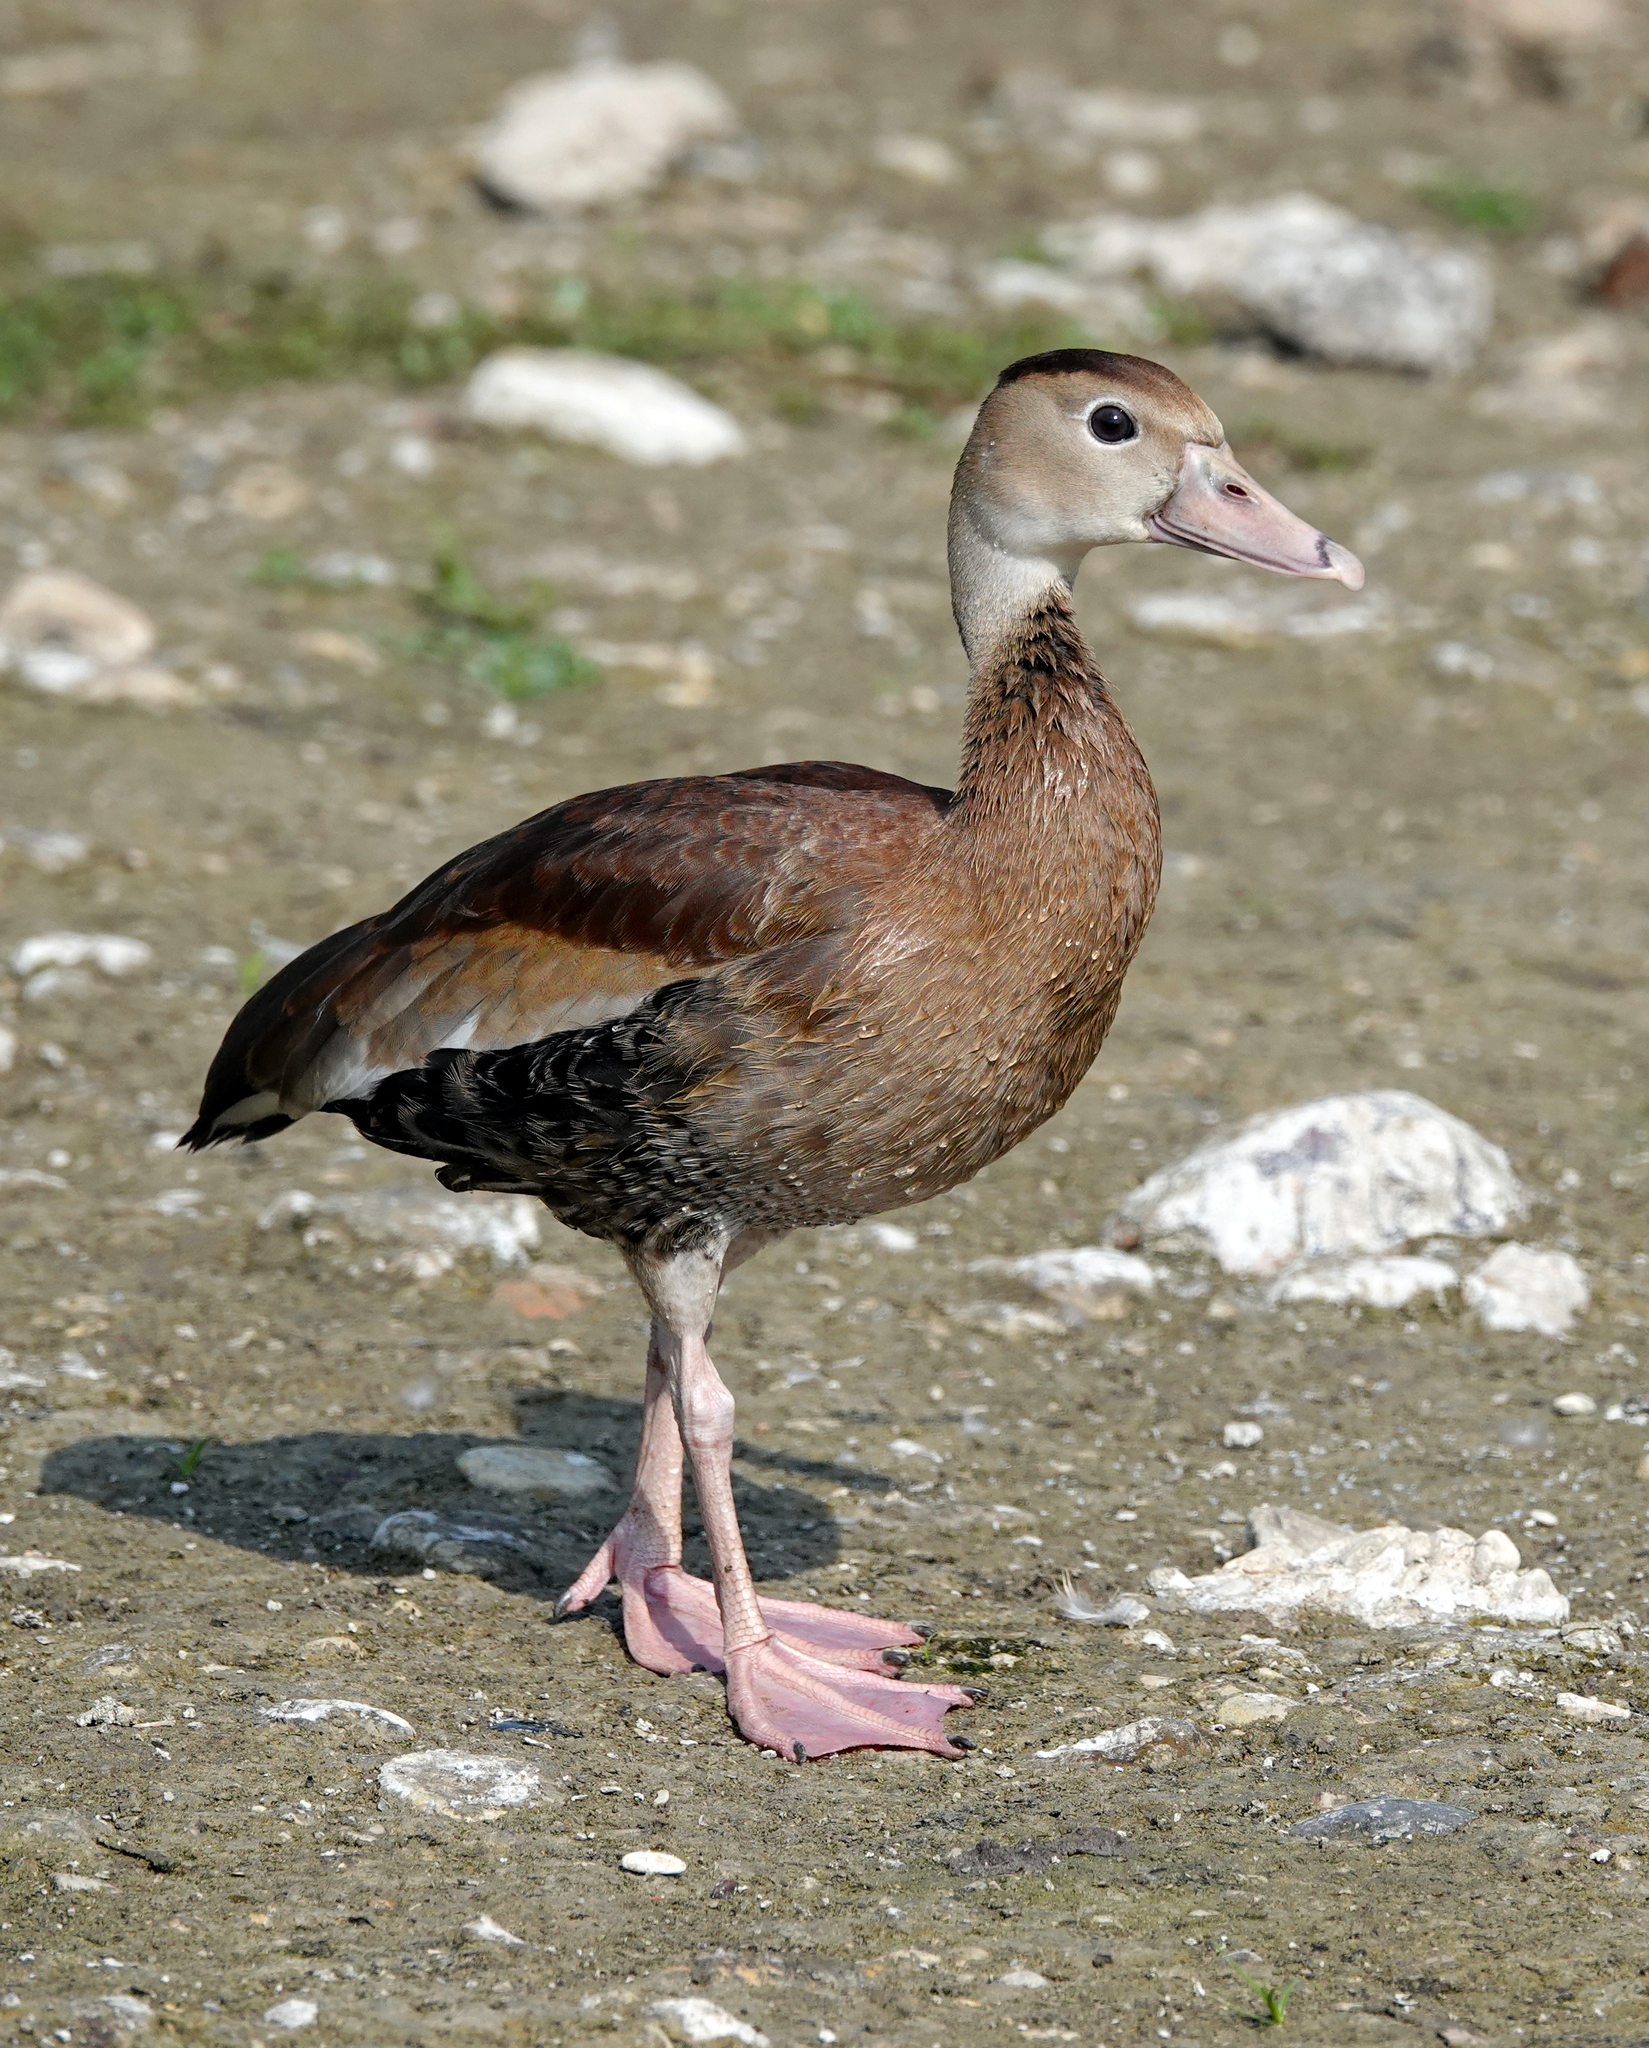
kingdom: Animalia
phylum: Chordata
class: Aves
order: Anseriformes
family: Anatidae
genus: Dendrocygna
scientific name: Dendrocygna autumnalis
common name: Black-bellied whistling duck
